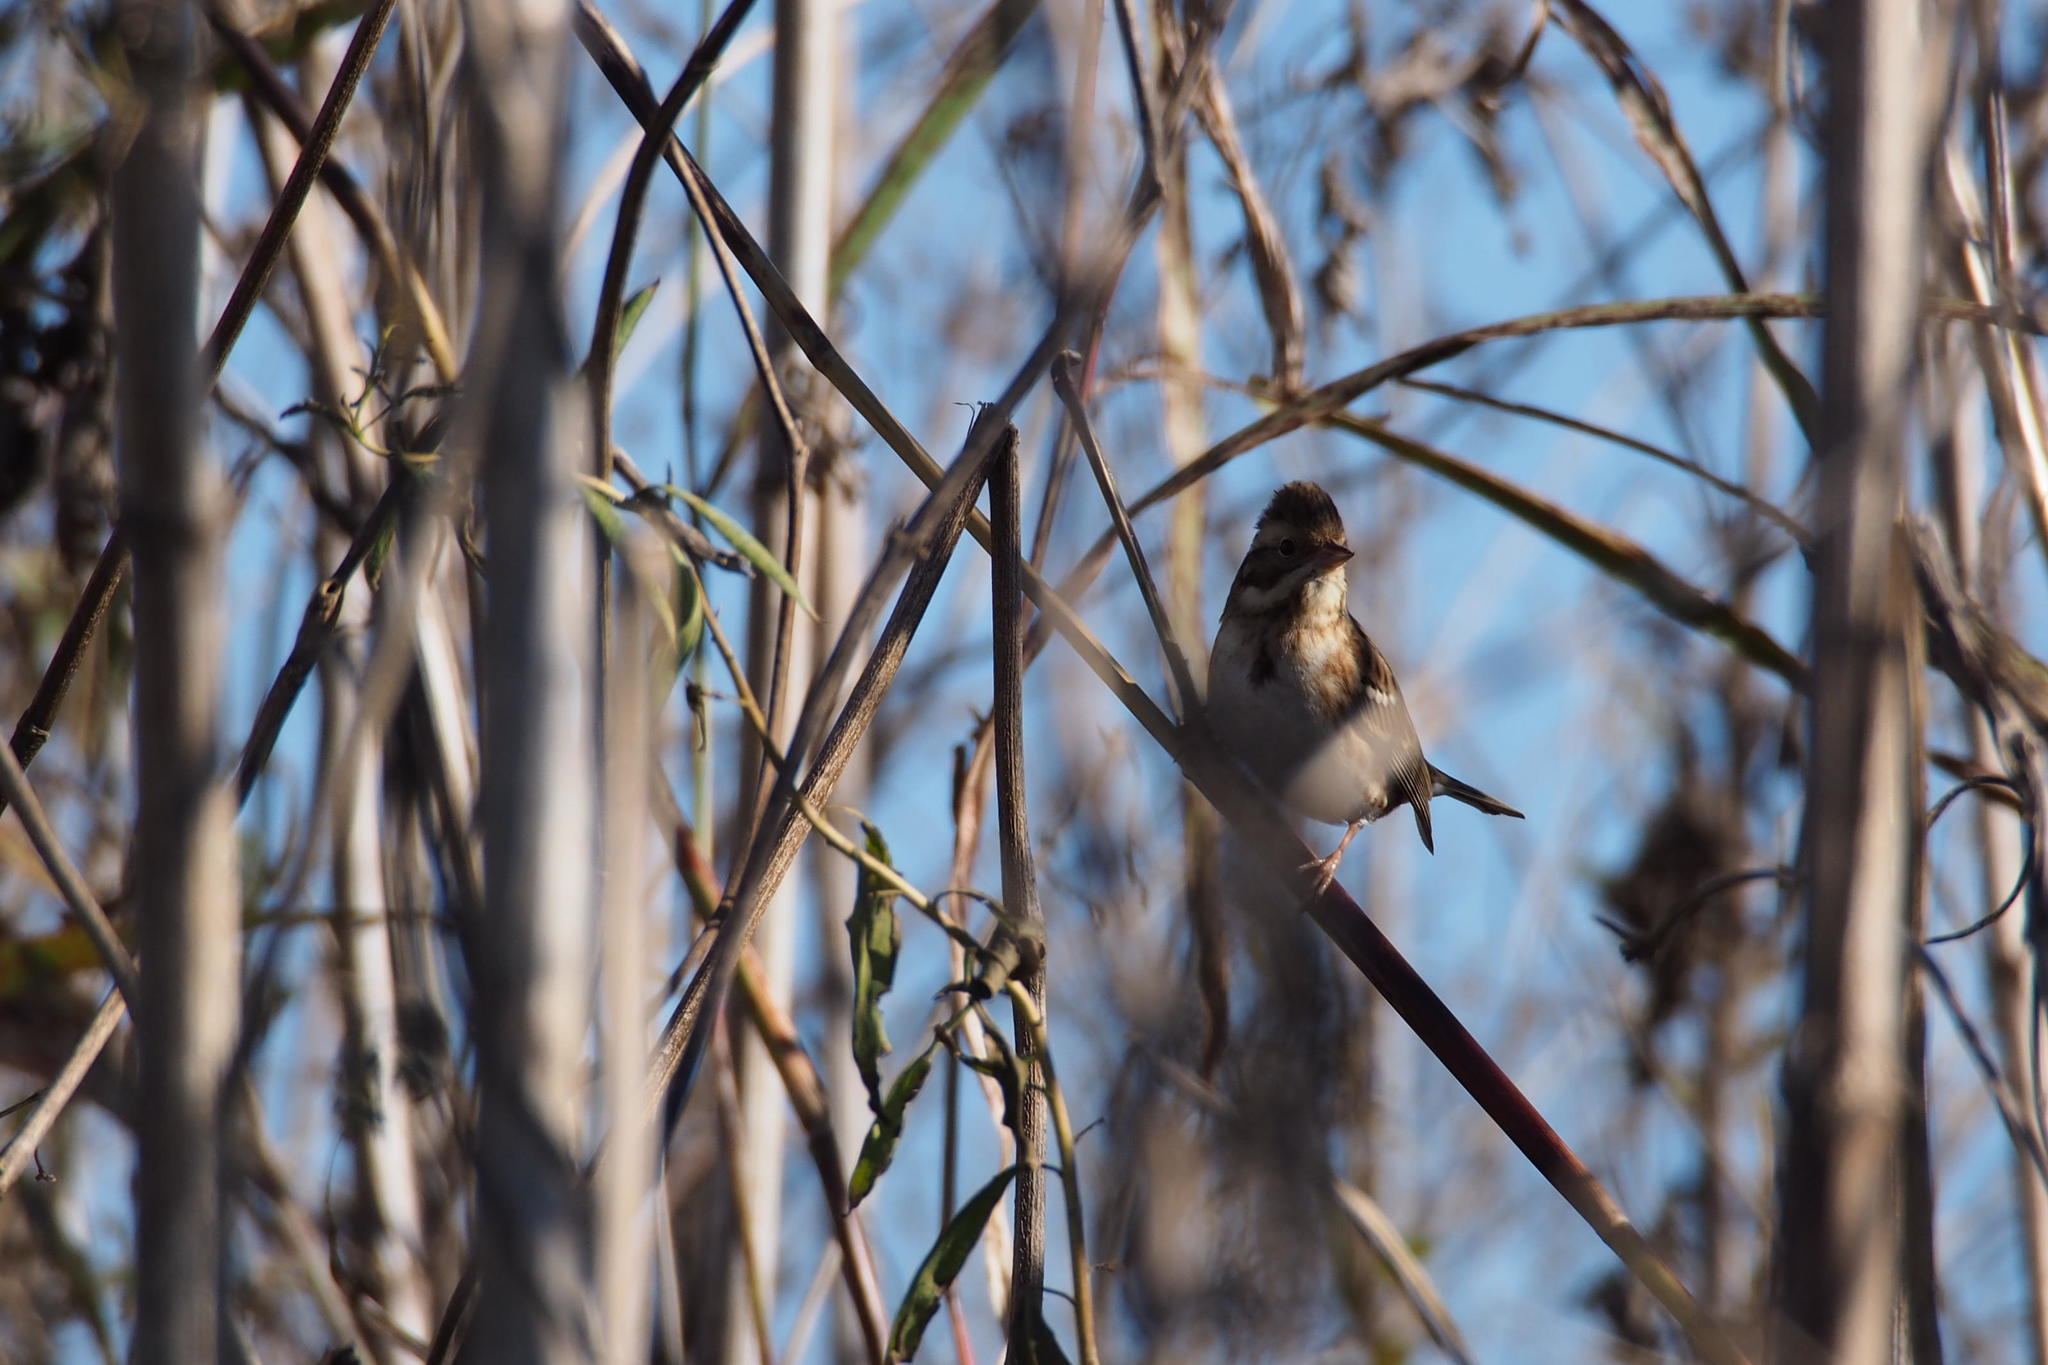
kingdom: Animalia
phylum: Chordata
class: Aves
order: Passeriformes
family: Emberizidae
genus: Emberiza
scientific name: Emberiza rustica
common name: Rustic bunting
